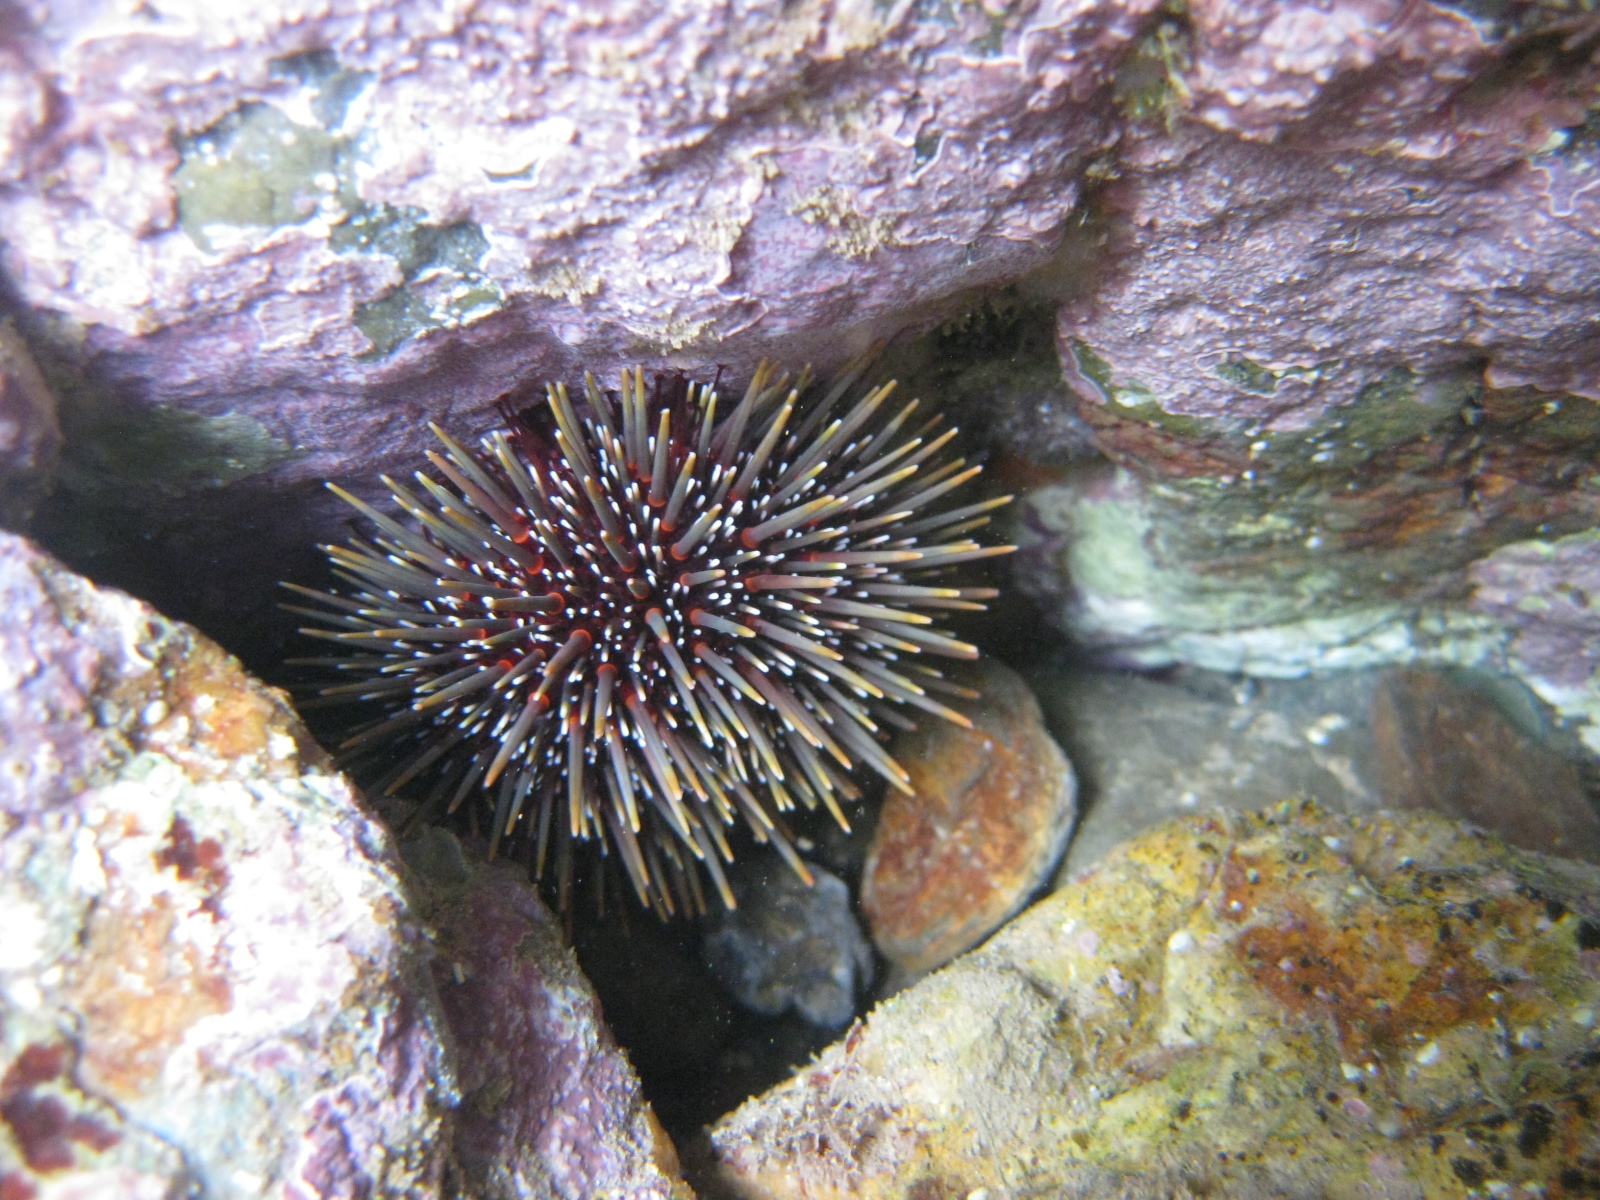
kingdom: Animalia
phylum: Echinodermata
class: Echinoidea
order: Camarodonta
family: Echinometridae
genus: Evechinus
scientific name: Evechinus chloroticus
